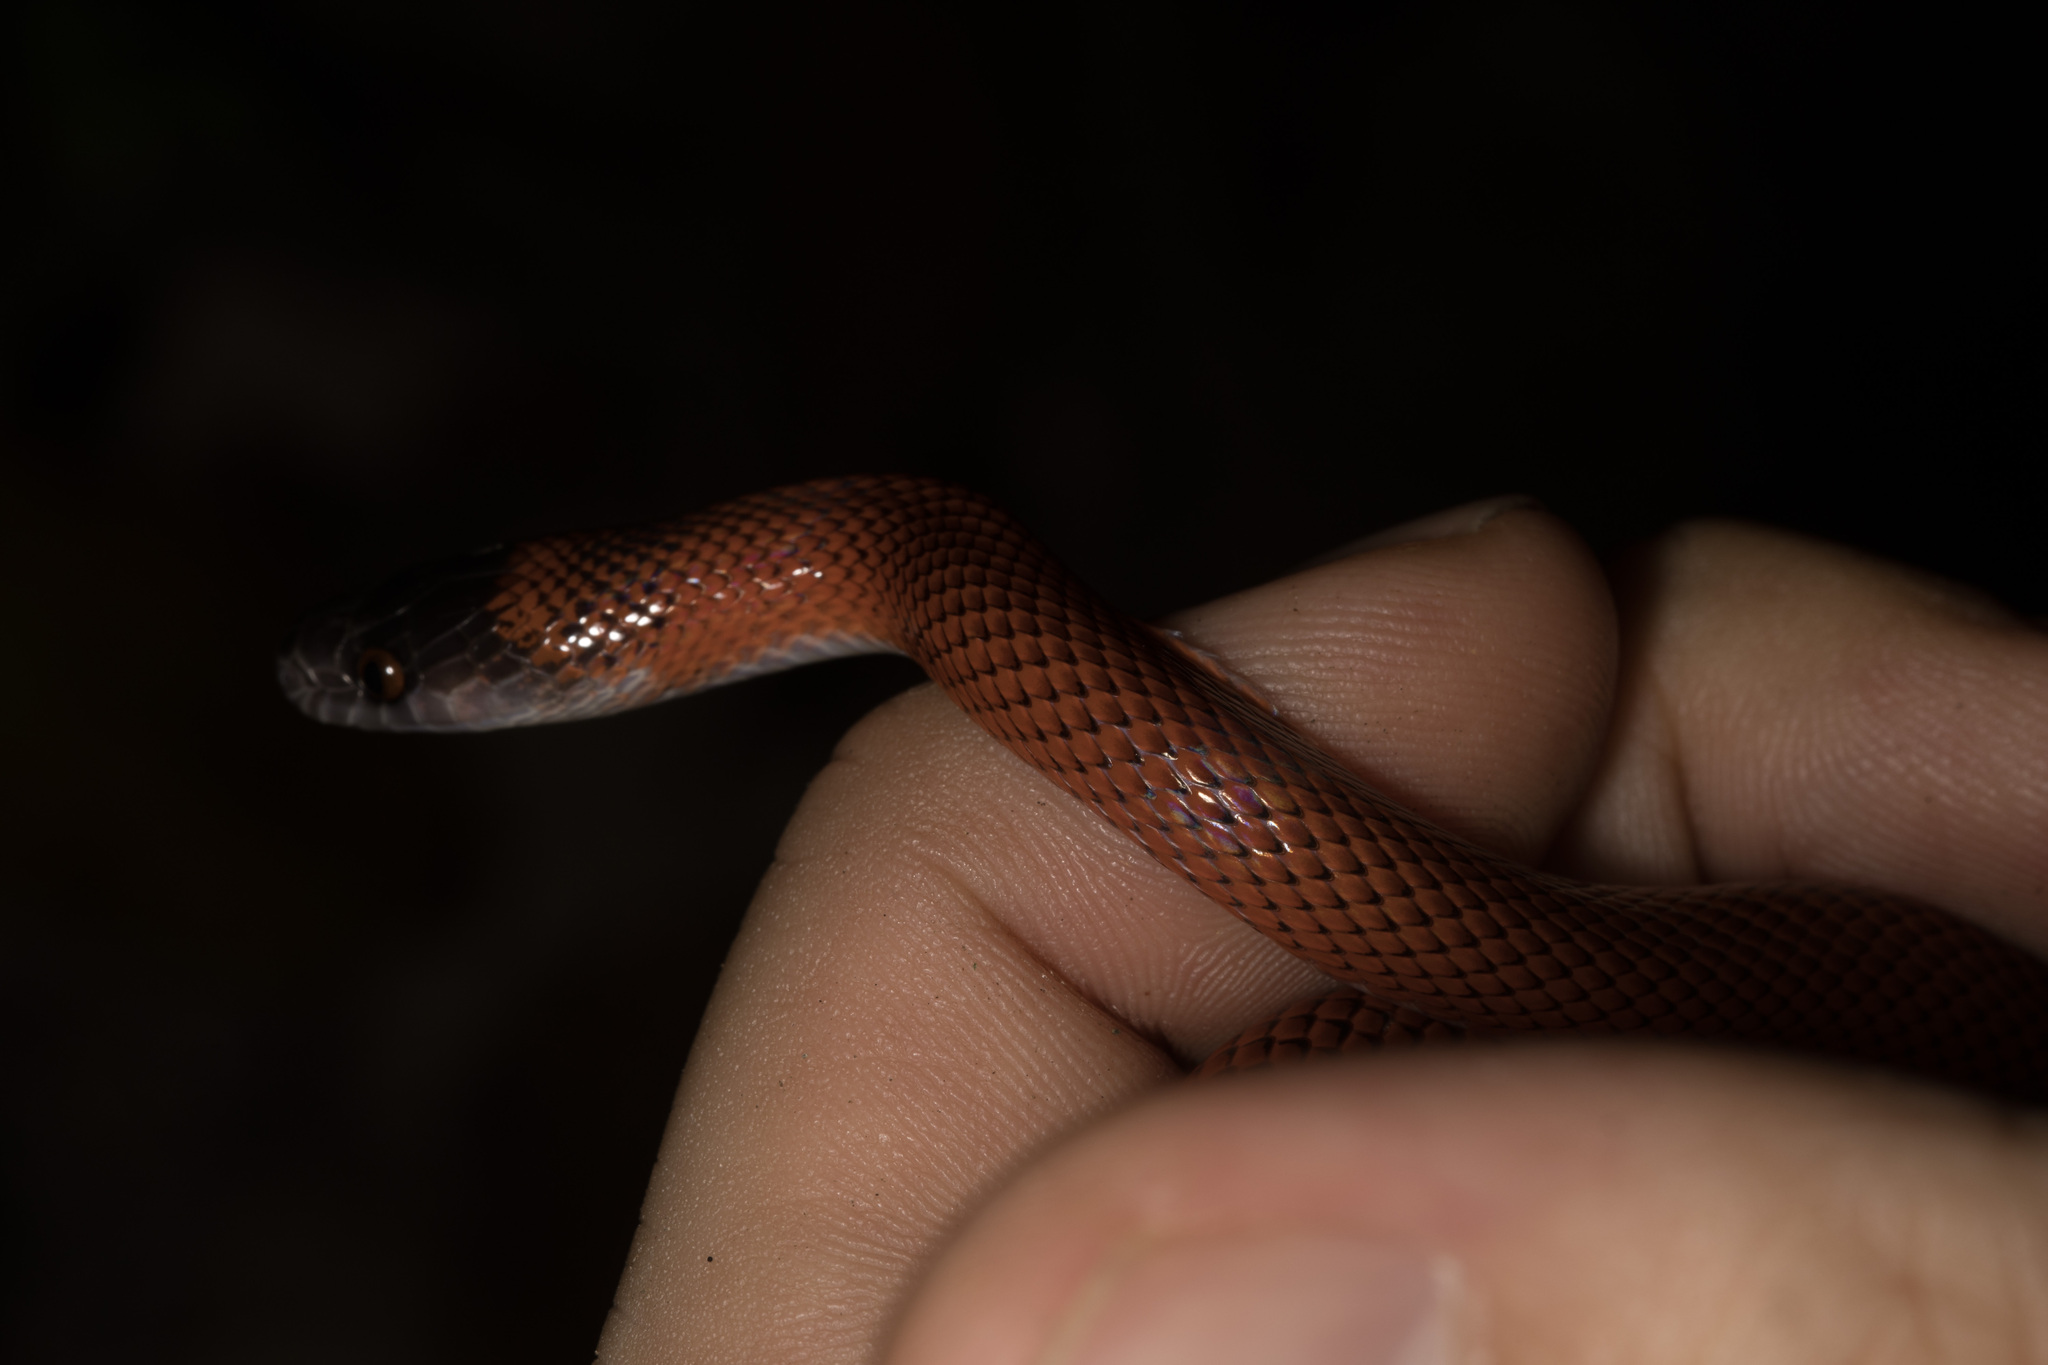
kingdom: Animalia
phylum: Chordata
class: Squamata
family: Colubridae
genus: Oxyrhopus
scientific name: Oxyrhopus melanogenys
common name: Tschudi's false coral snake
